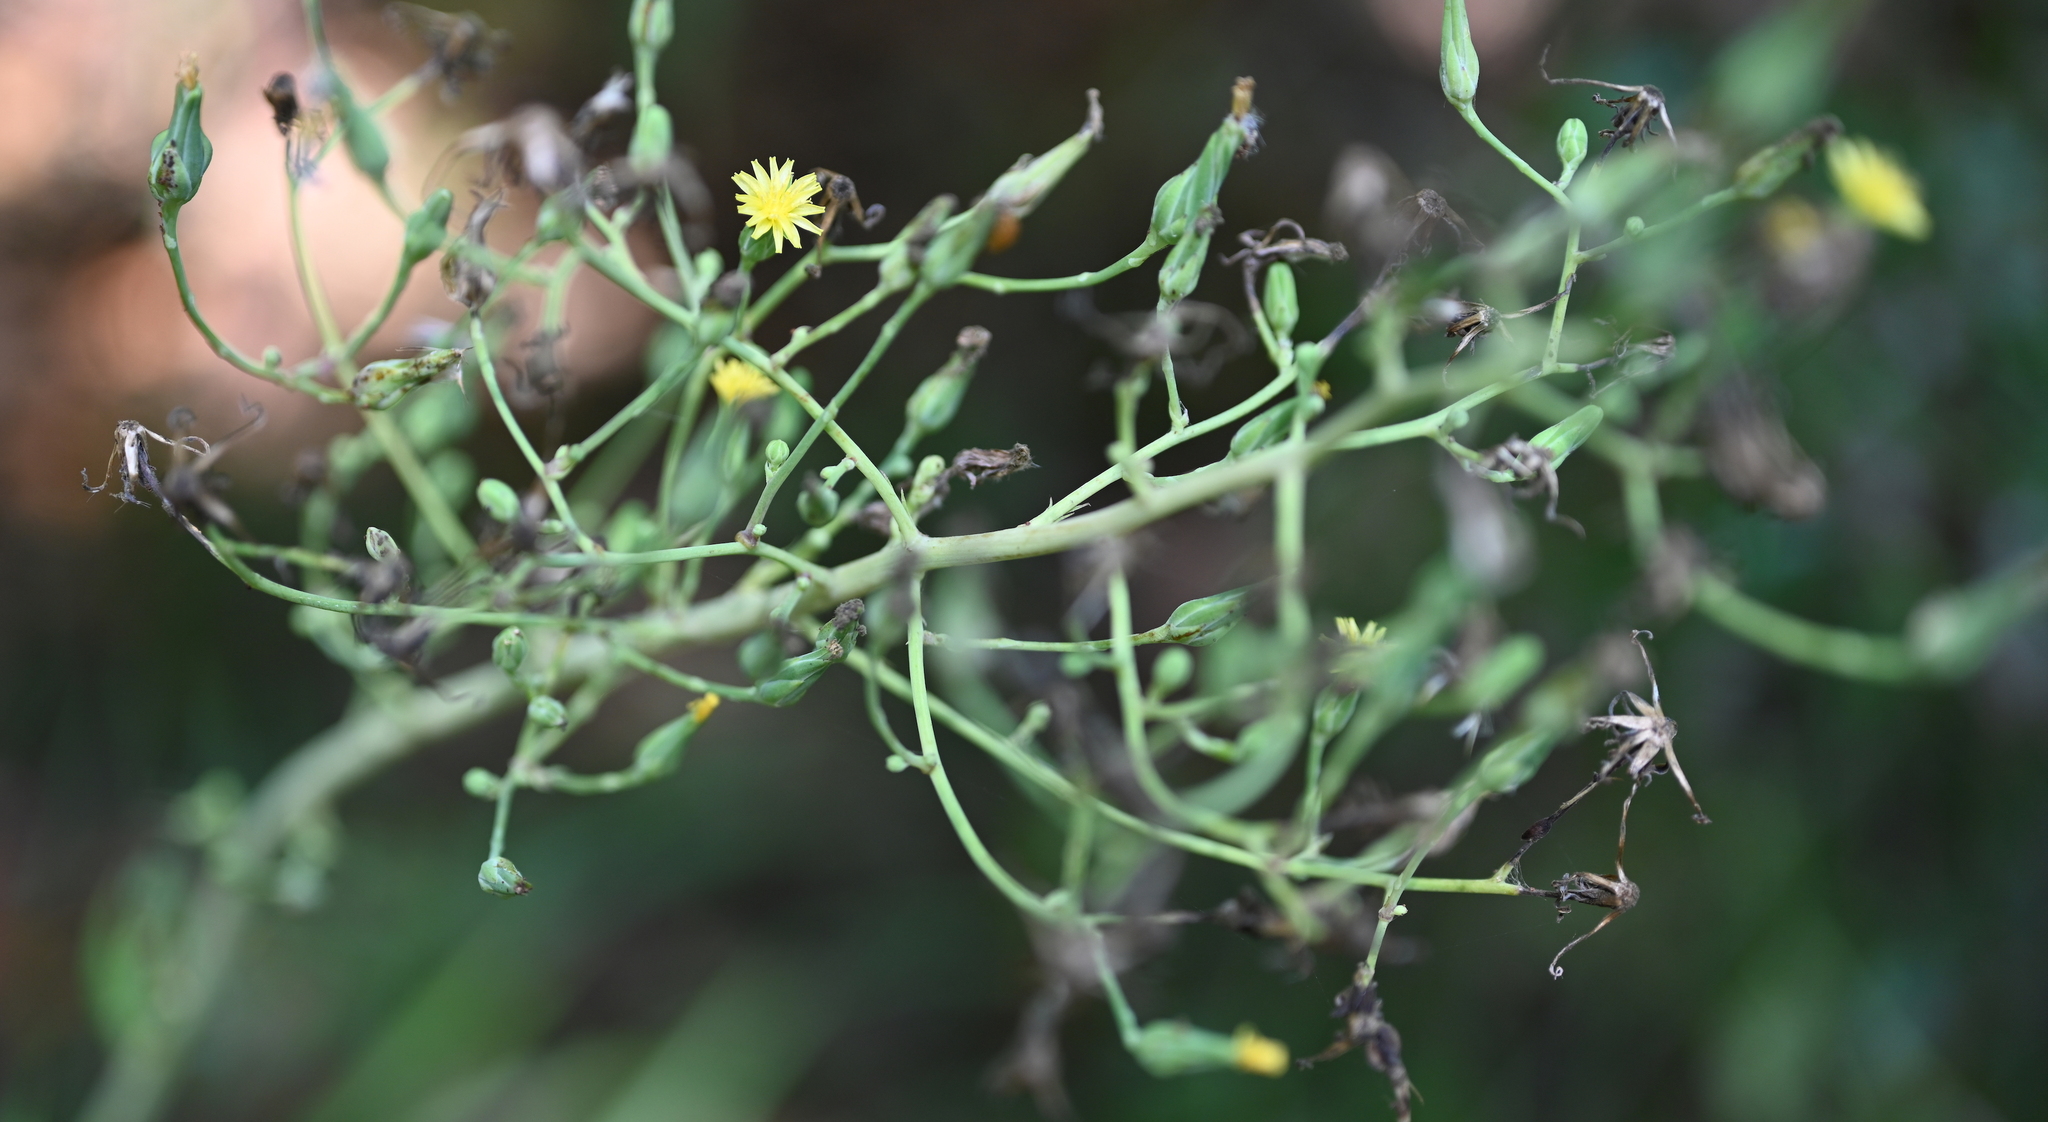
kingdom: Plantae
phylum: Tracheophyta
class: Magnoliopsida
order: Asterales
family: Asteraceae
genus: Lactuca
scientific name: Lactuca canadensis
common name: Canada lettuce
